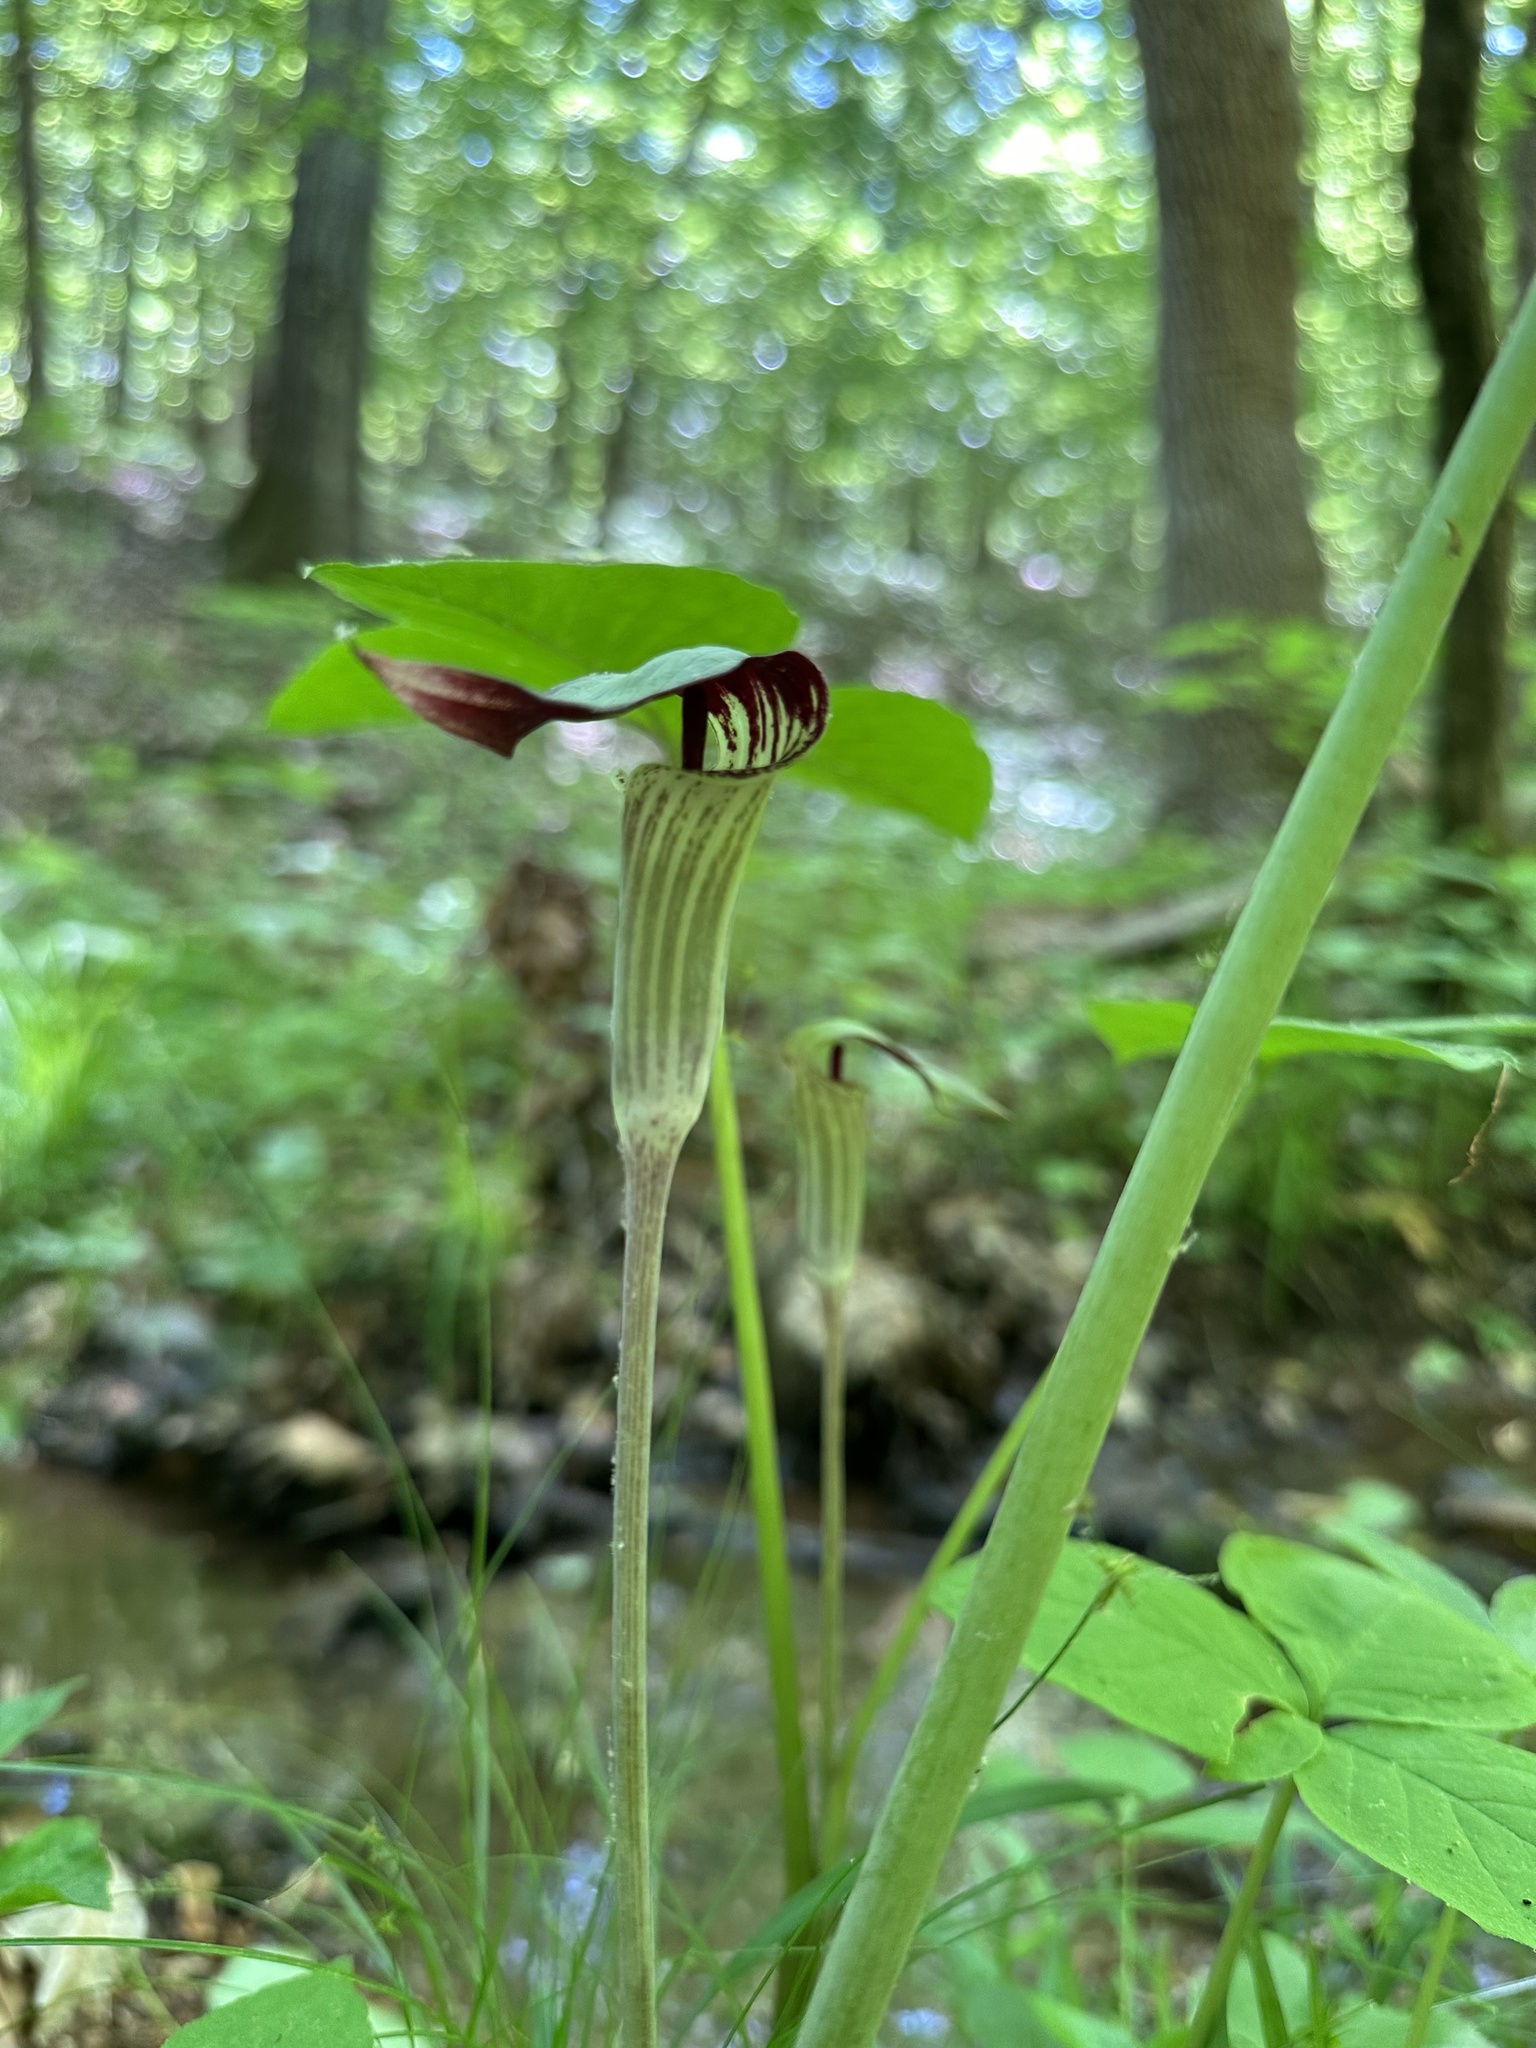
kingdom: Plantae
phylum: Tracheophyta
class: Liliopsida
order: Alismatales
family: Araceae
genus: Arisaema
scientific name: Arisaema pusillum
